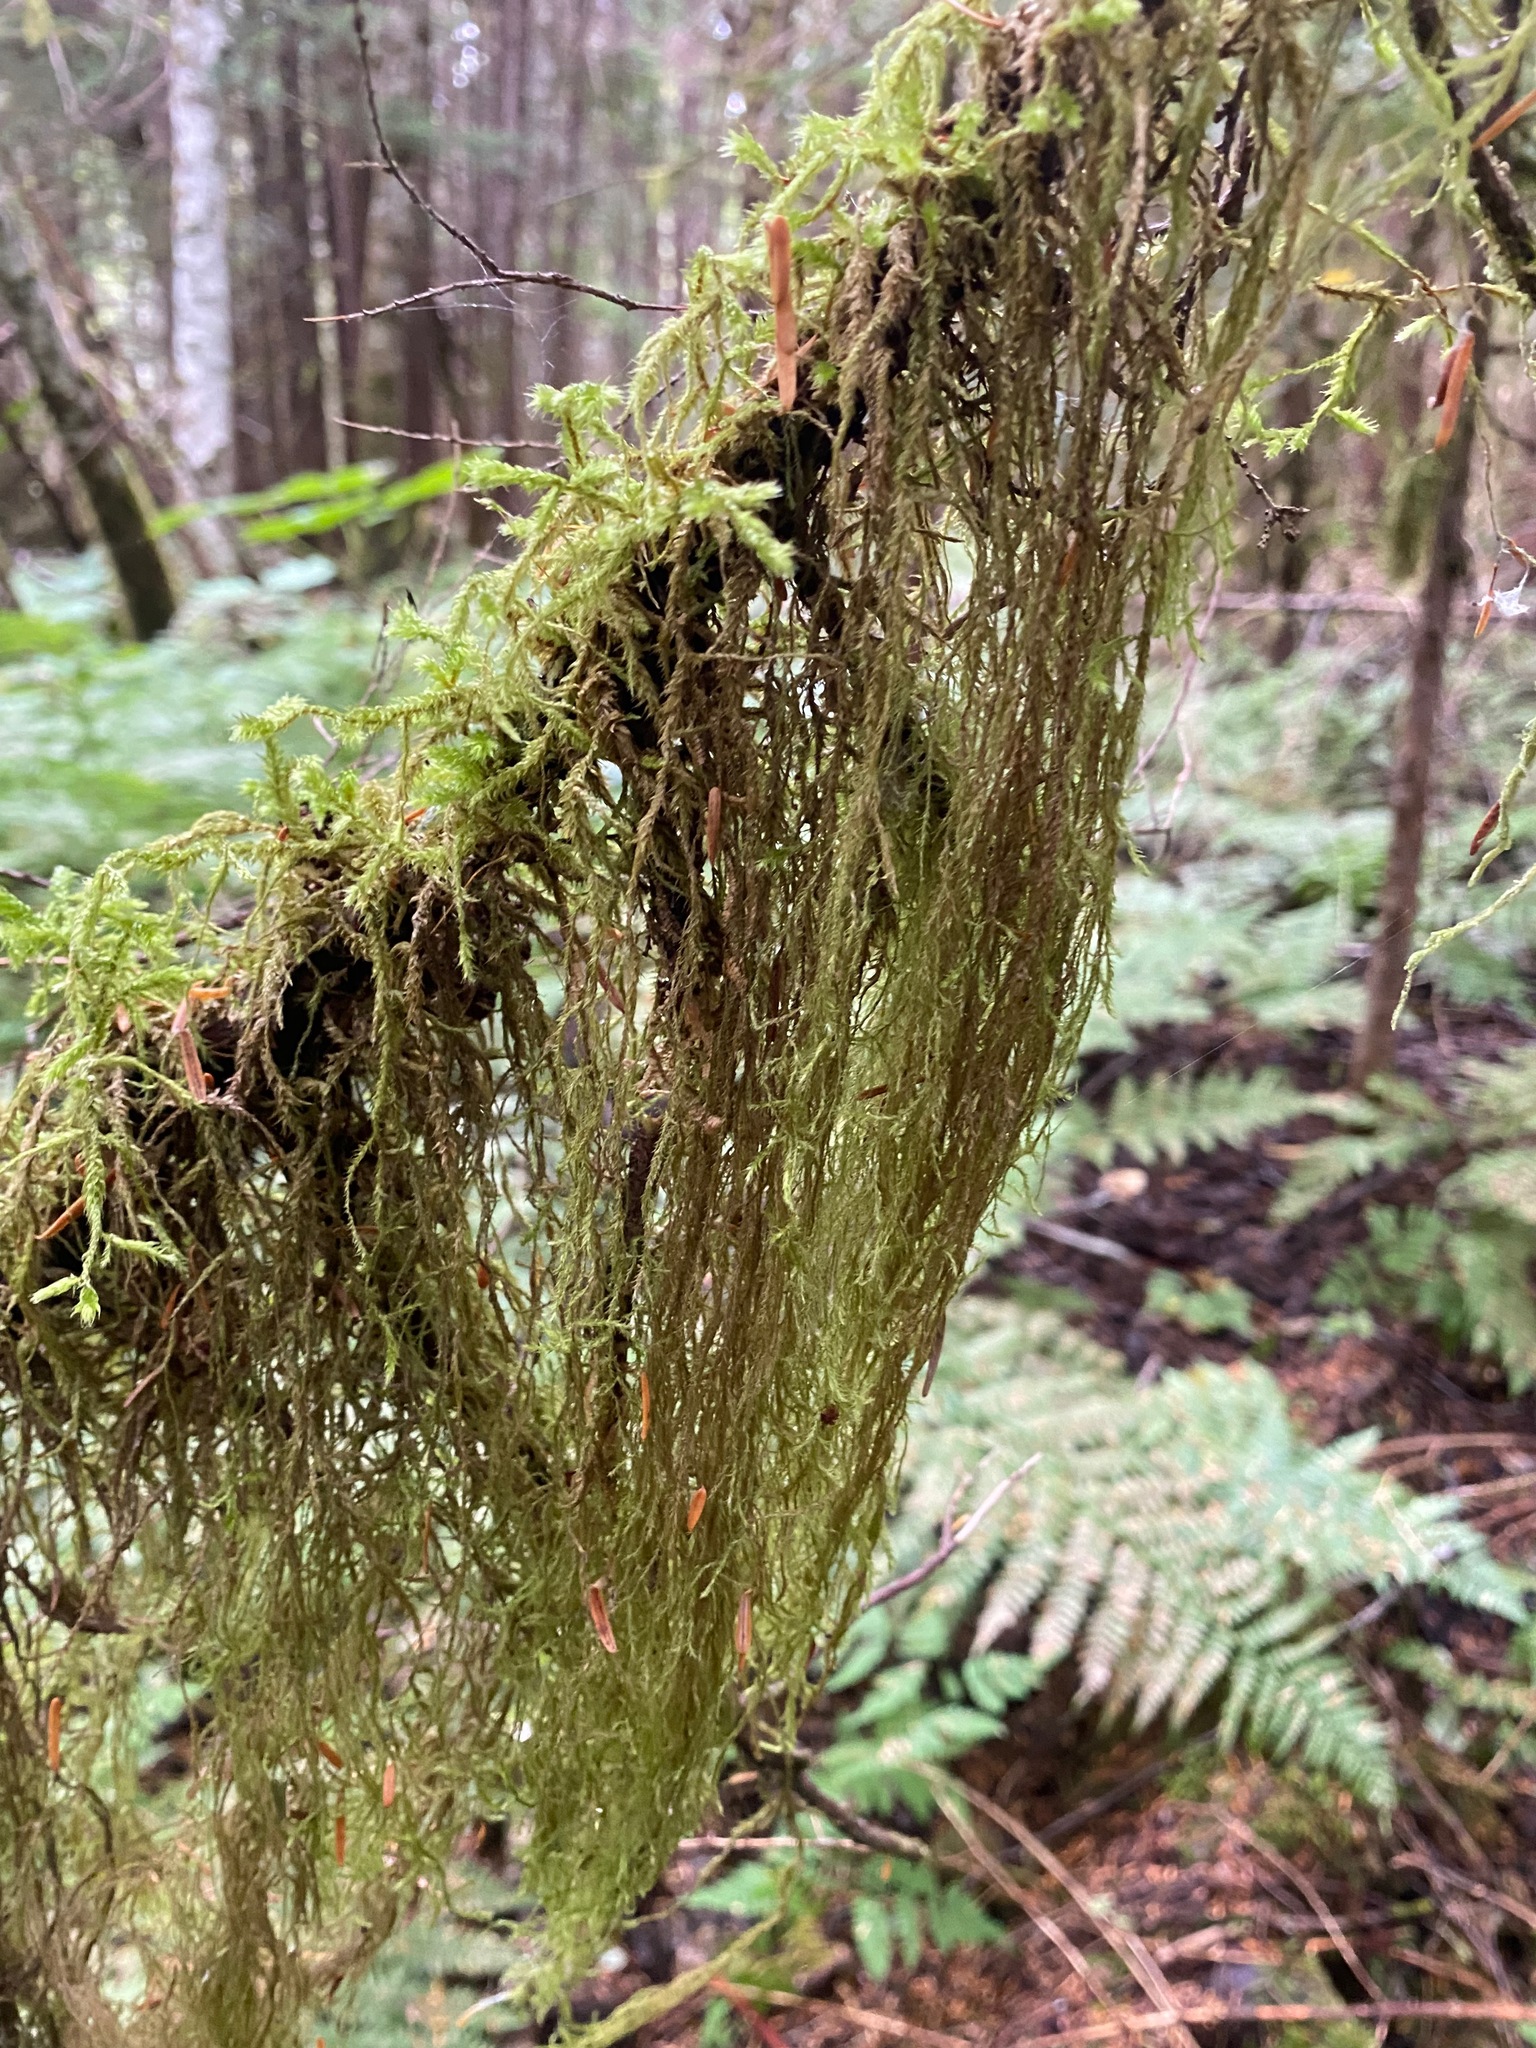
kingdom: Plantae
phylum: Bryophyta
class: Bryopsida
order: Hypnales
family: Lembophyllaceae
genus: Pseudisothecium
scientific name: Pseudisothecium stoloniferum
